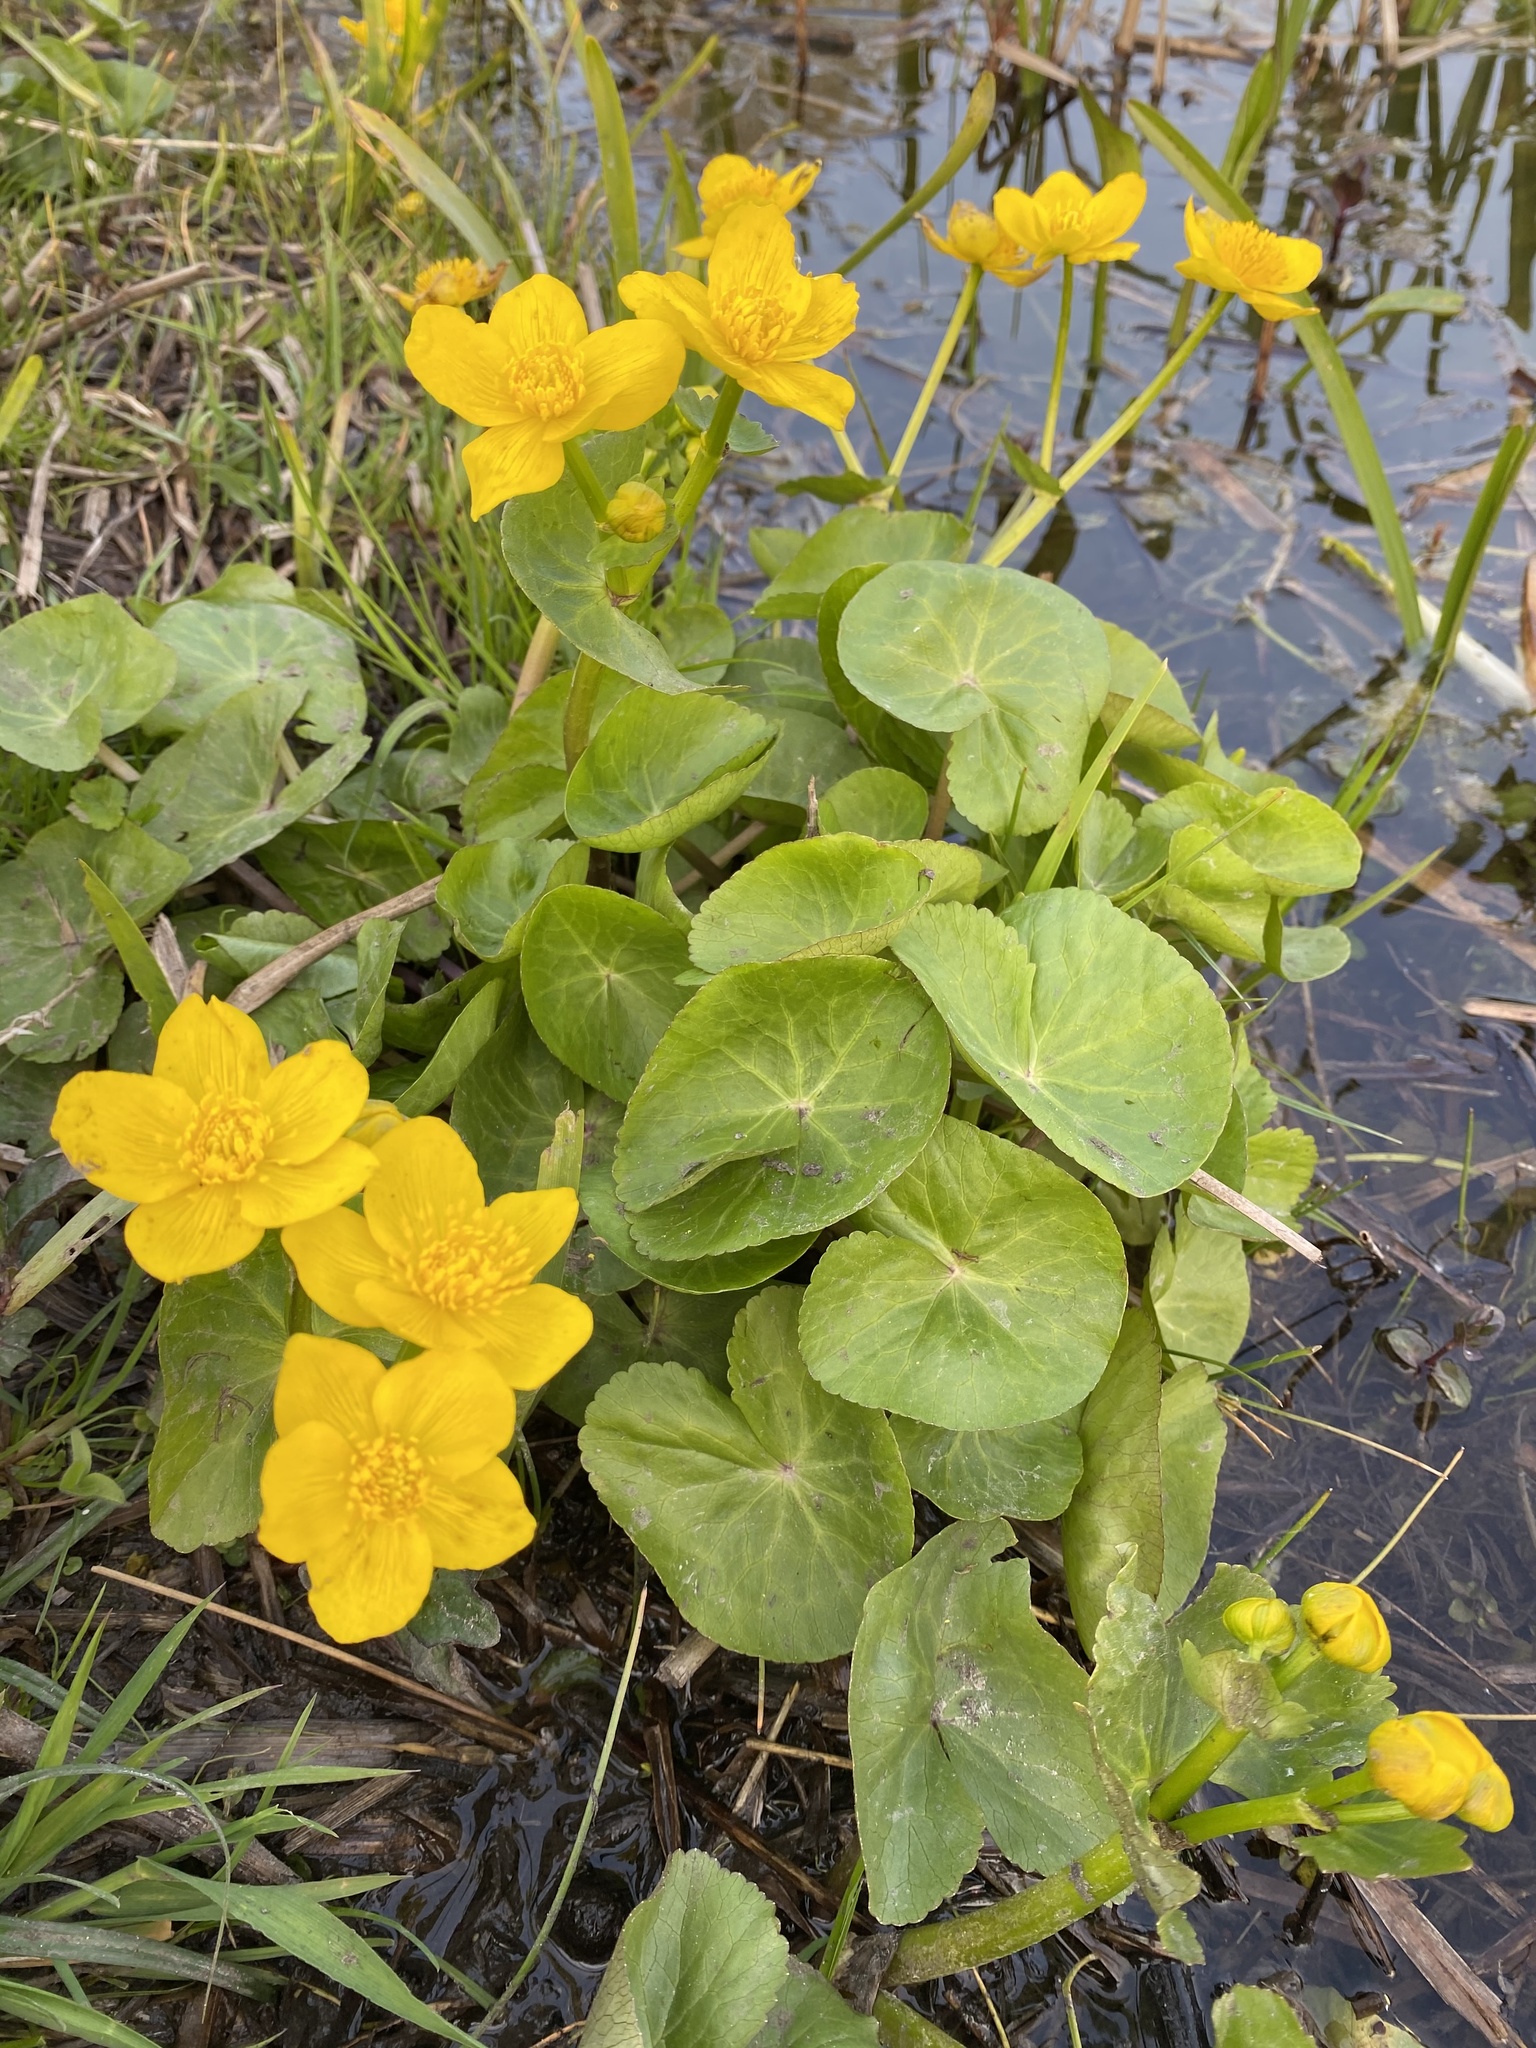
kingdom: Plantae
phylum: Tracheophyta
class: Magnoliopsida
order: Ranunculales
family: Ranunculaceae
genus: Caltha
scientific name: Caltha palustris
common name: Marsh marigold
